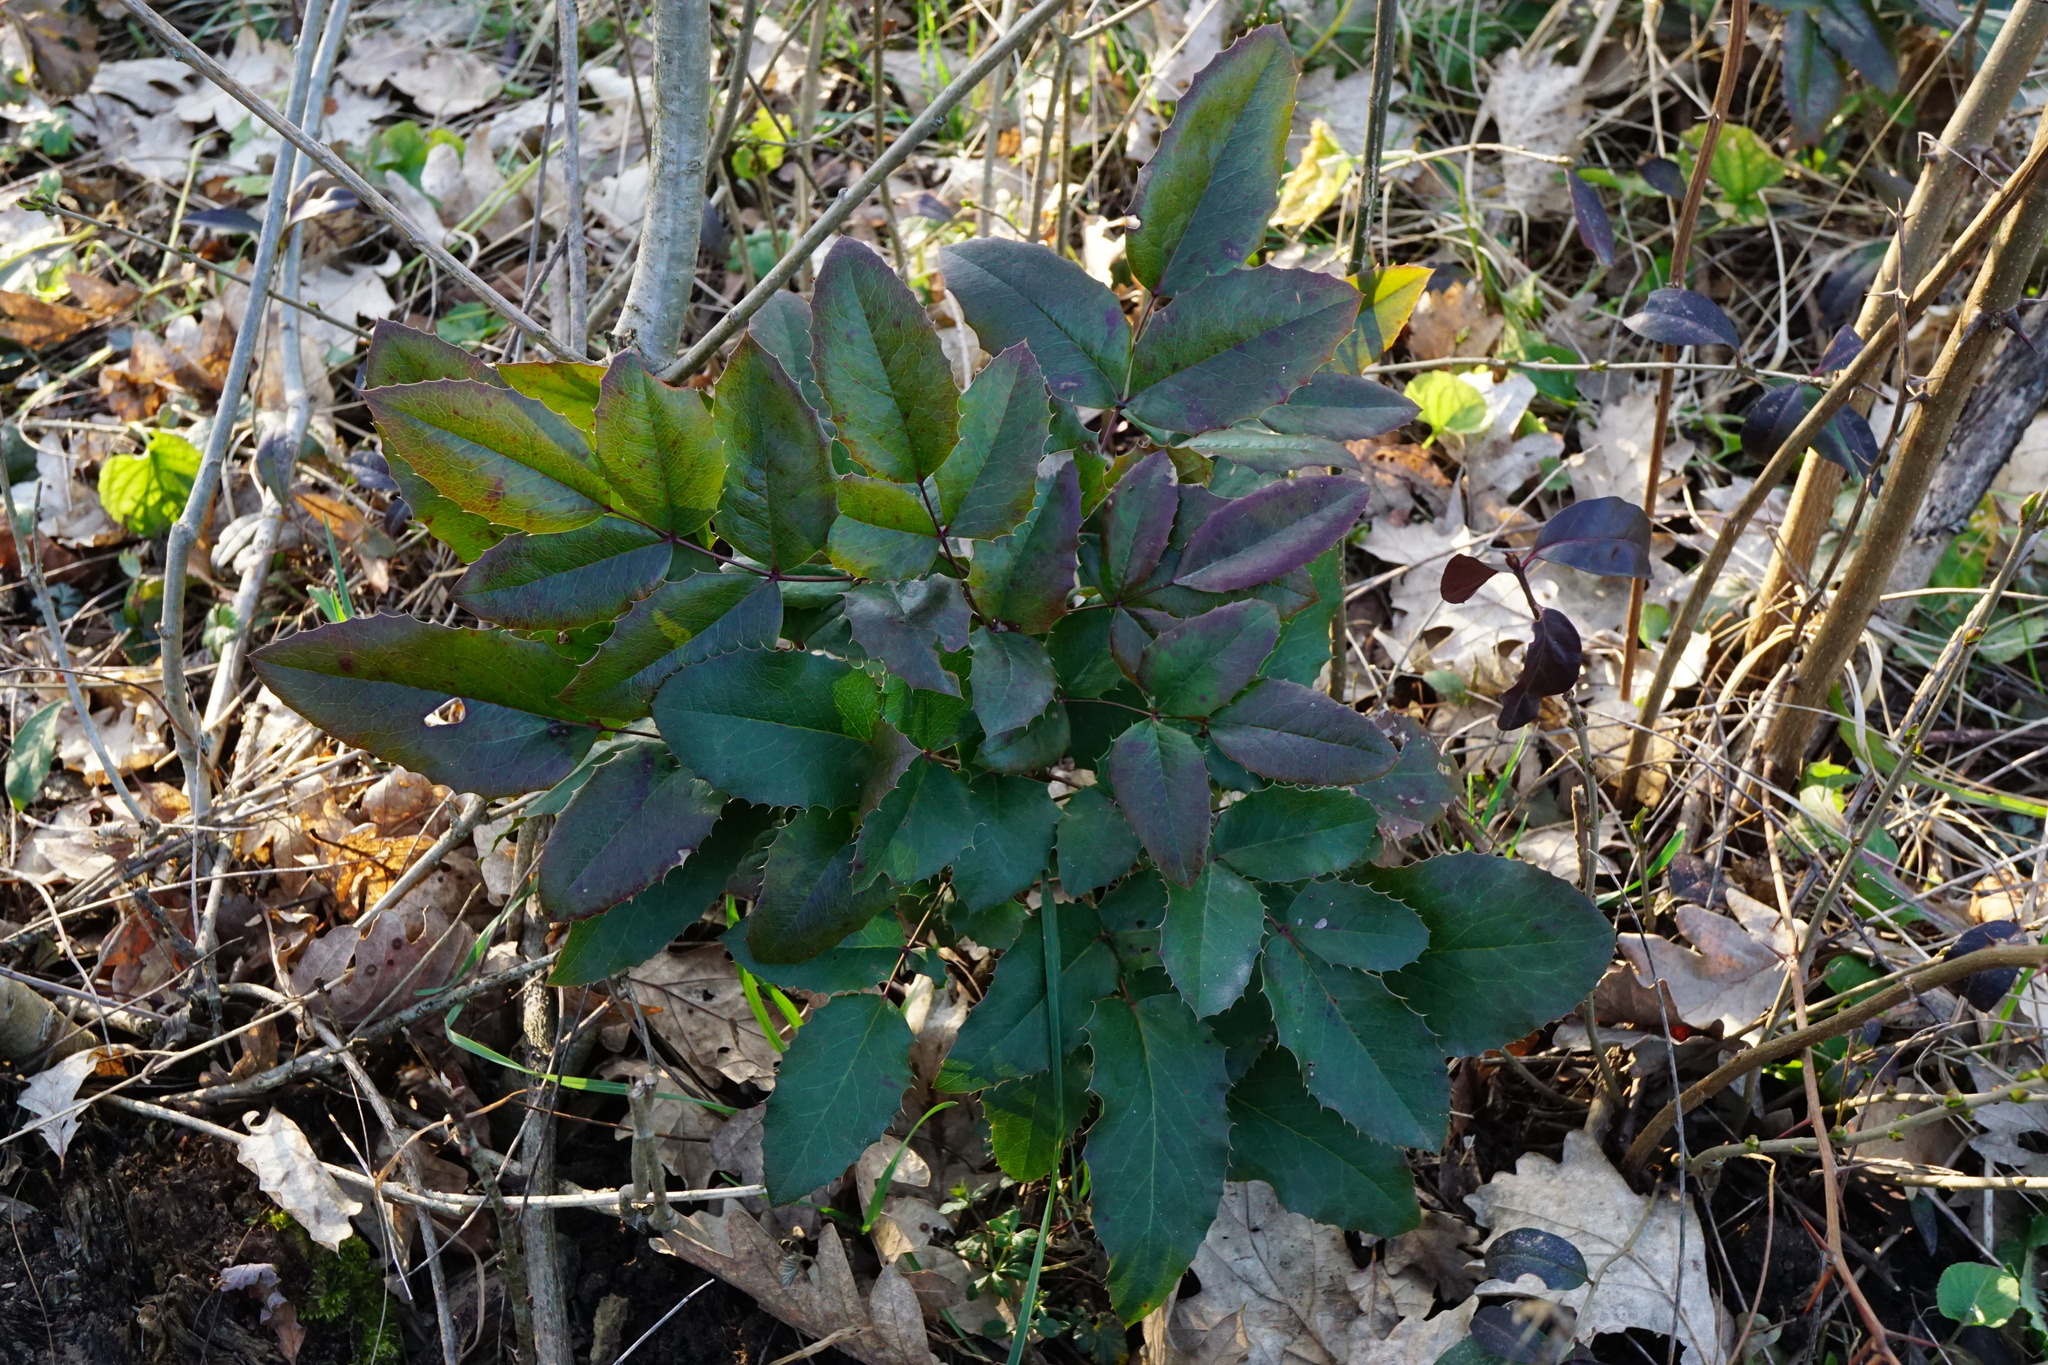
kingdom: Plantae
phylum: Tracheophyta
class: Magnoliopsida
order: Ranunculales
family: Berberidaceae
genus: Mahonia
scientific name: Mahonia aquifolium
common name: Oregon-grape
